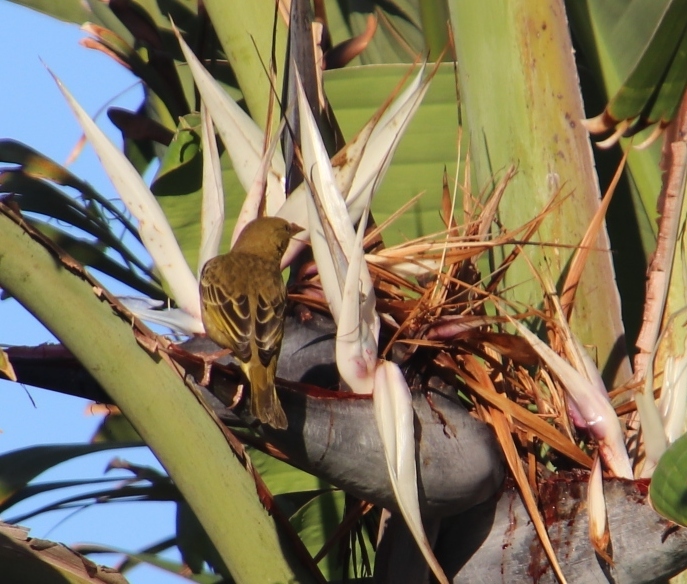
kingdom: Animalia
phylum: Chordata
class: Aves
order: Passeriformes
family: Ploceidae
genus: Ploceus
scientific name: Ploceus capensis
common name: Cape weaver
